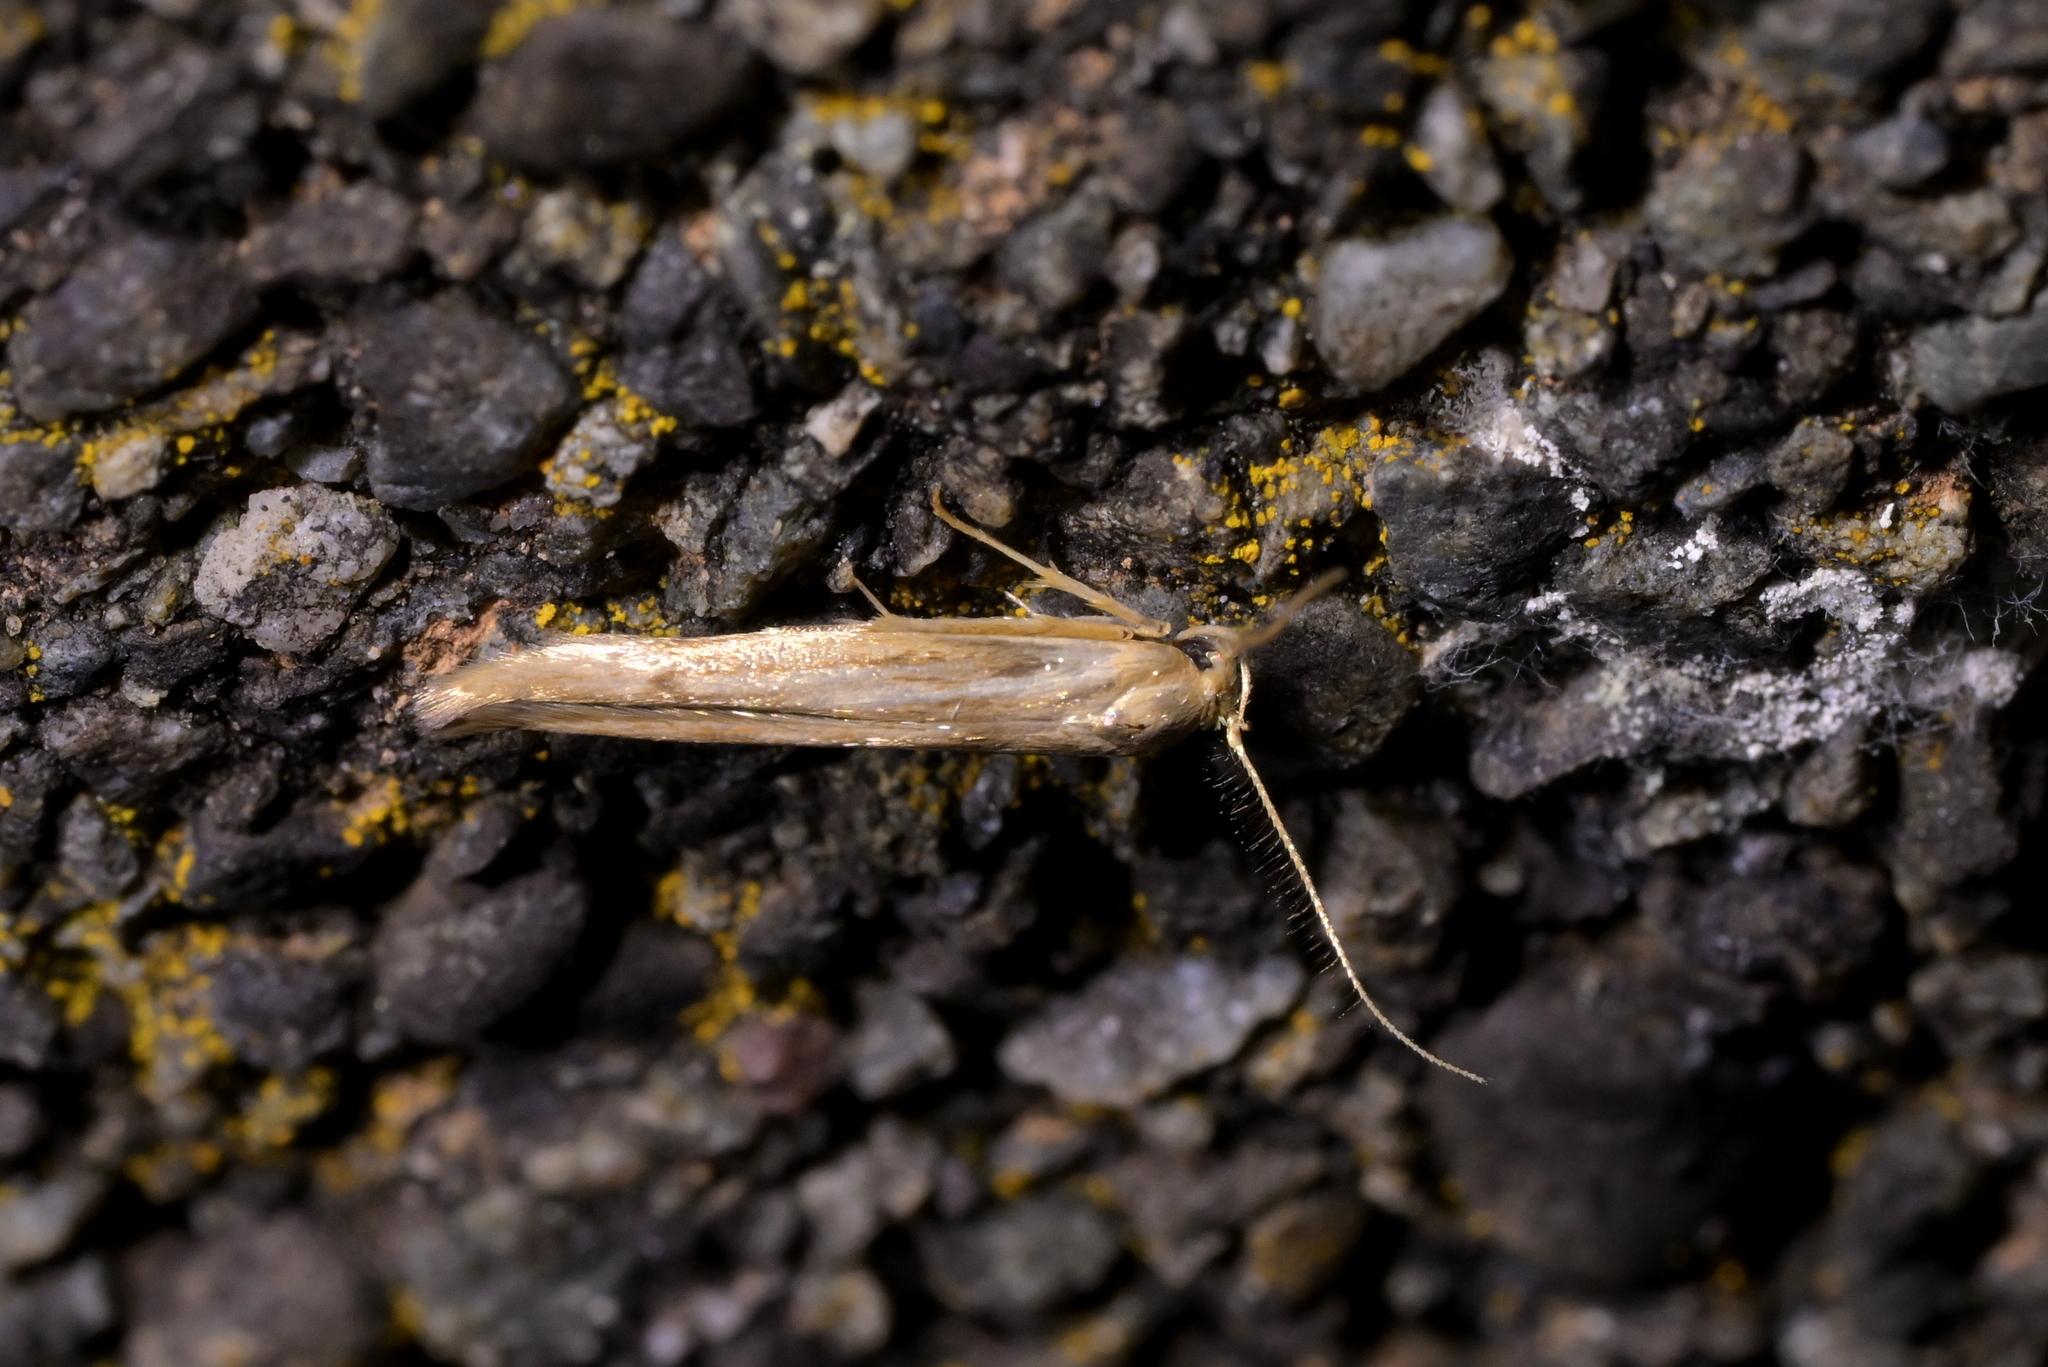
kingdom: Animalia
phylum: Arthropoda
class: Insecta
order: Lepidoptera
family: Stathmopodidae
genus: Stathmopoda
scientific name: Stathmopoda aposema
